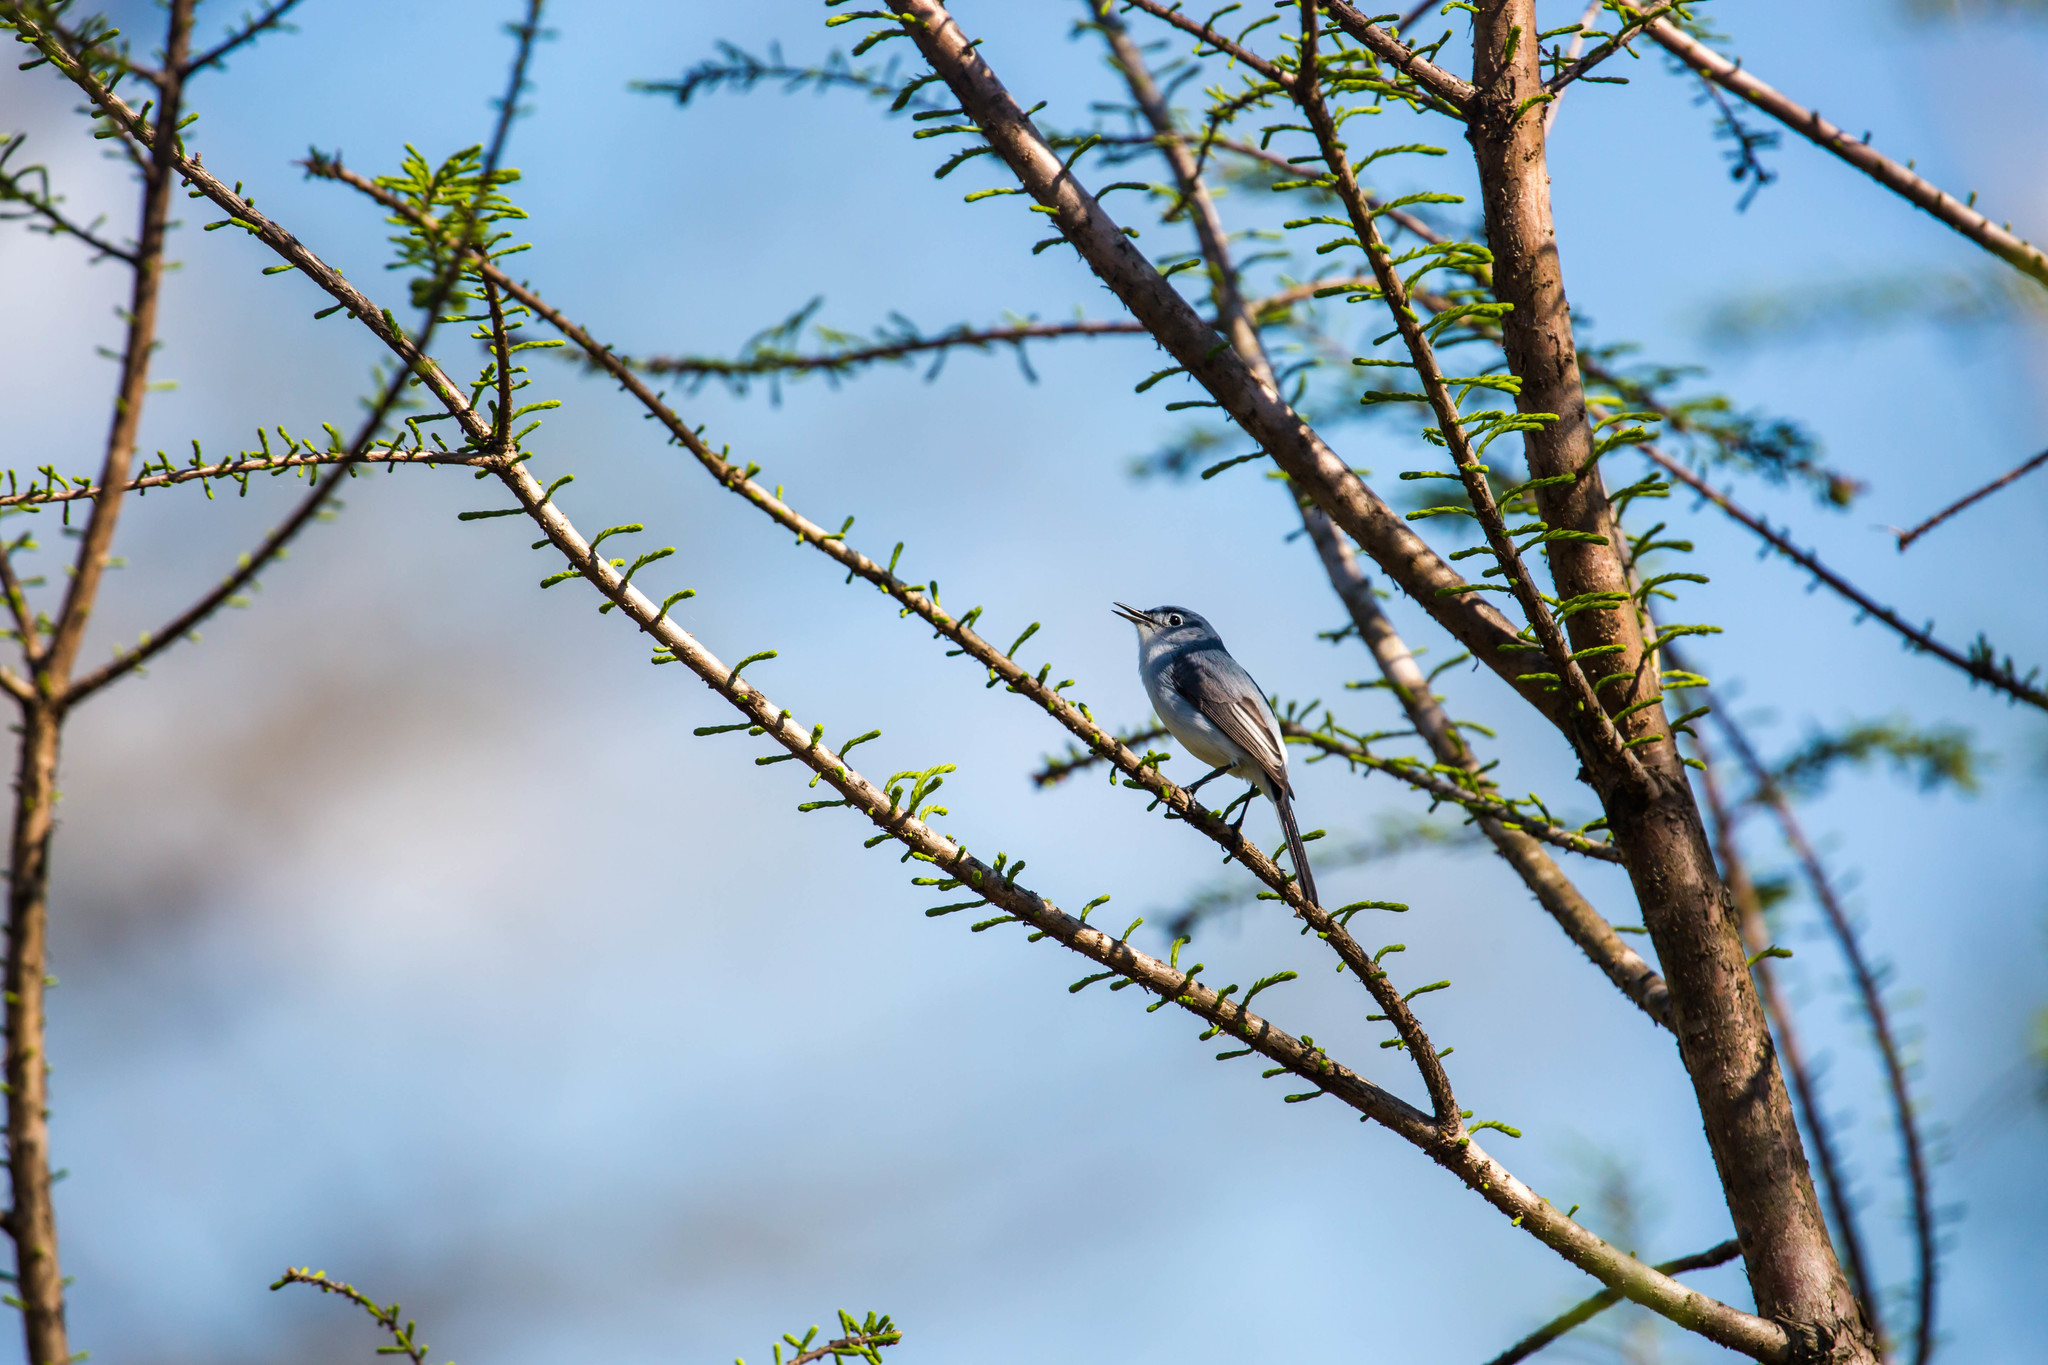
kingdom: Animalia
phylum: Chordata
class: Aves
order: Passeriformes
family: Polioptilidae
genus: Polioptila
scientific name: Polioptila caerulea
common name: Blue-gray gnatcatcher
